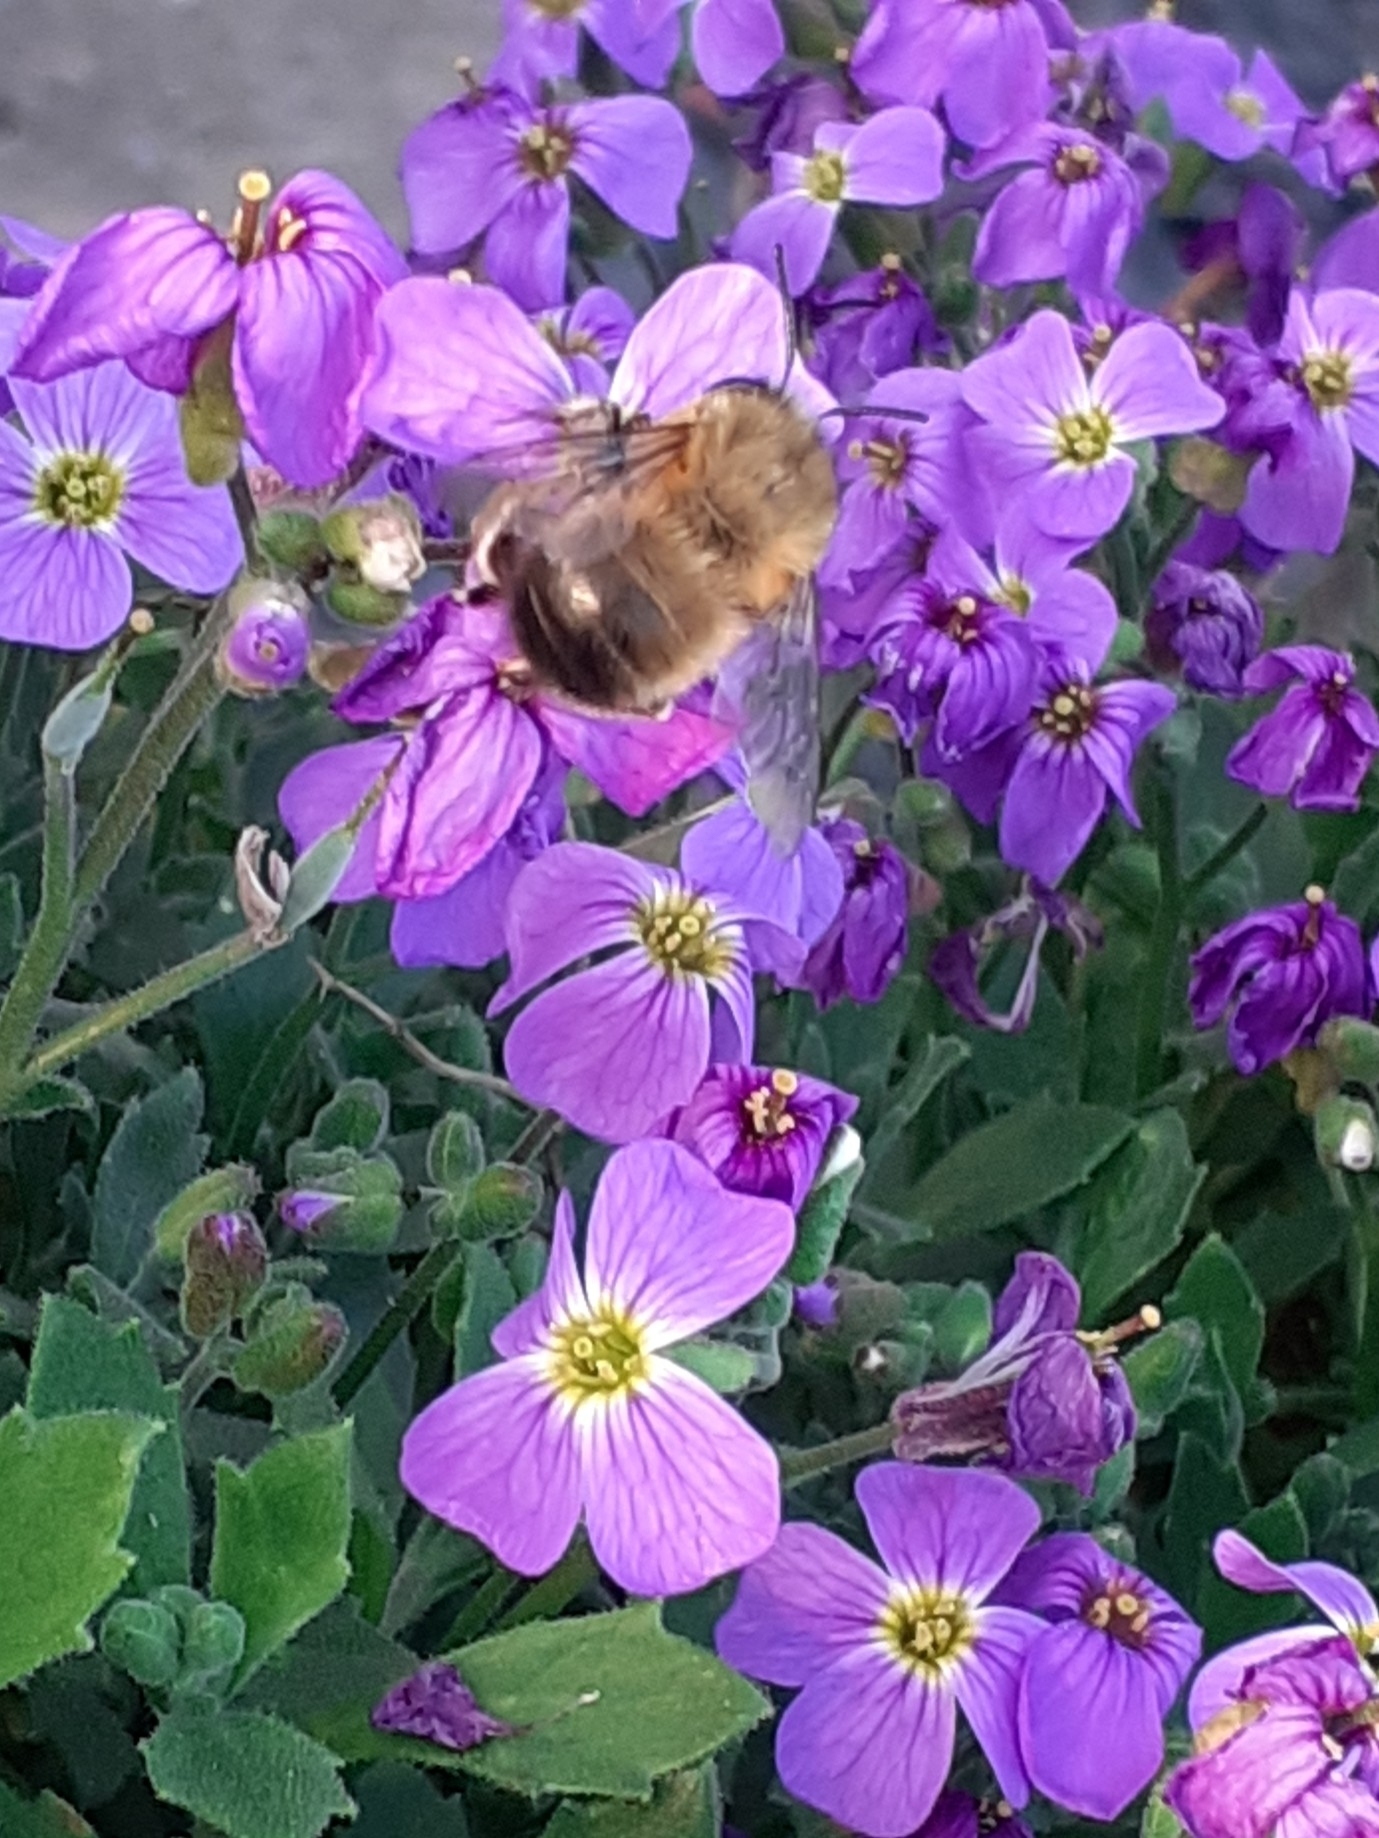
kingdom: Animalia
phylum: Arthropoda
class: Insecta
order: Hymenoptera
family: Apidae
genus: Anthophora
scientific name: Anthophora plumipes
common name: Hairy-footed flower bee
